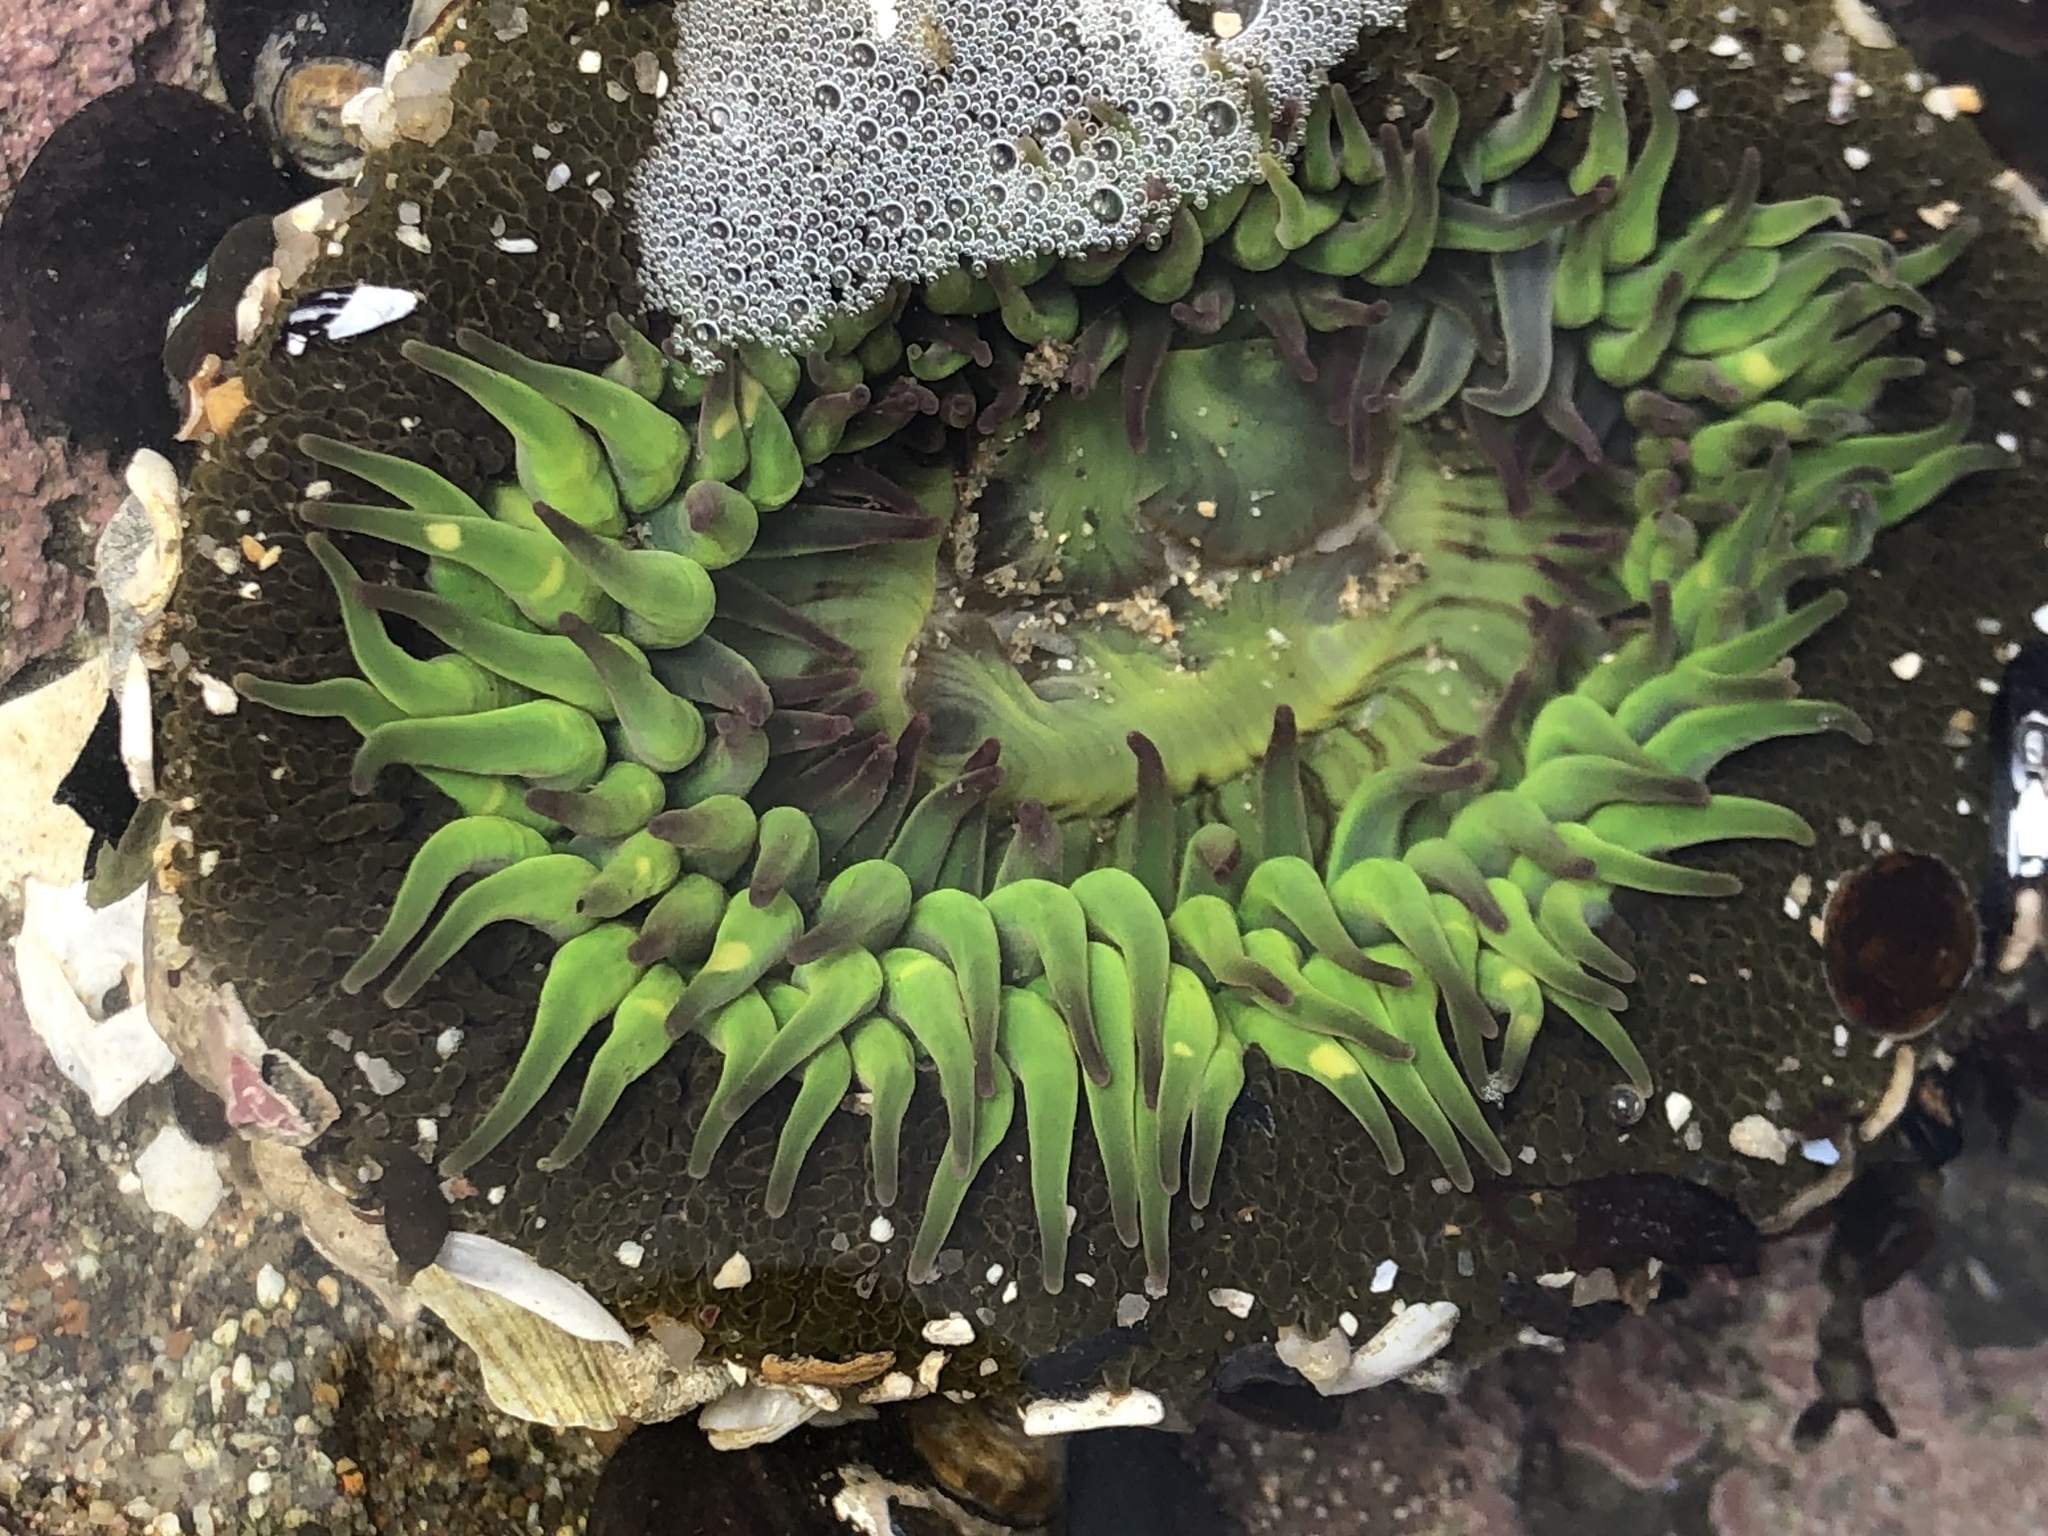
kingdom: Animalia
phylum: Cnidaria
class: Anthozoa
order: Actiniaria
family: Actiniidae
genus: Anthopleura
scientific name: Anthopleura sola
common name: Sun anemone
